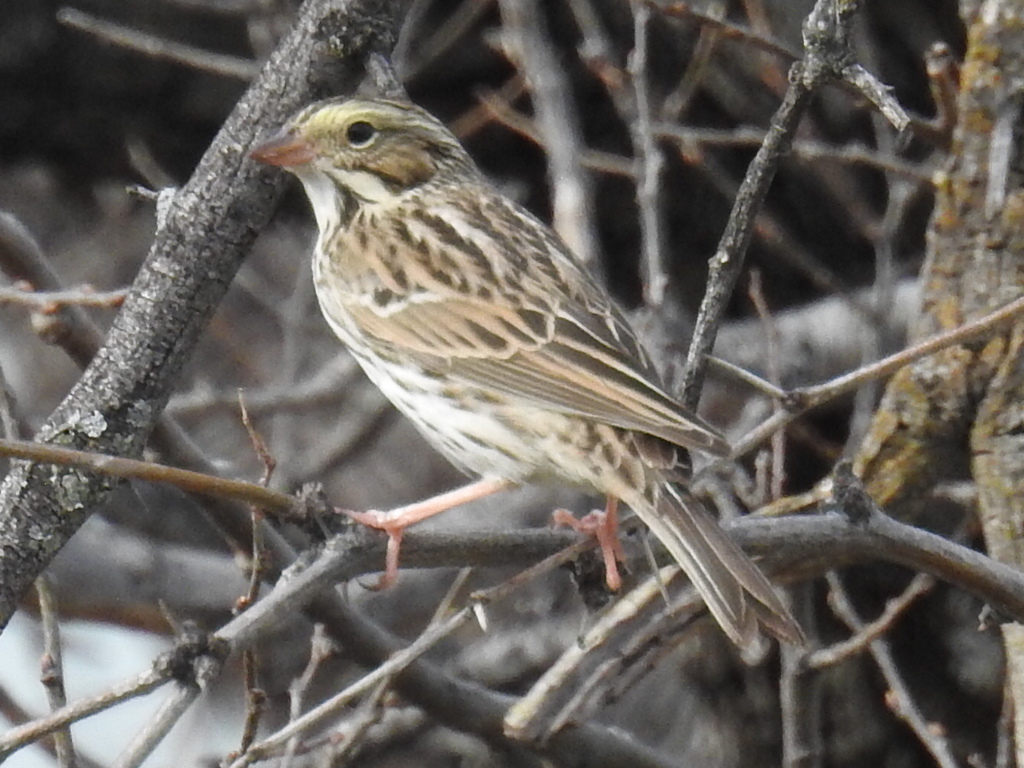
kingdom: Animalia
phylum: Chordata
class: Aves
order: Passeriformes
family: Passerellidae
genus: Passerculus
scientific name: Passerculus sandwichensis
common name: Savannah sparrow
